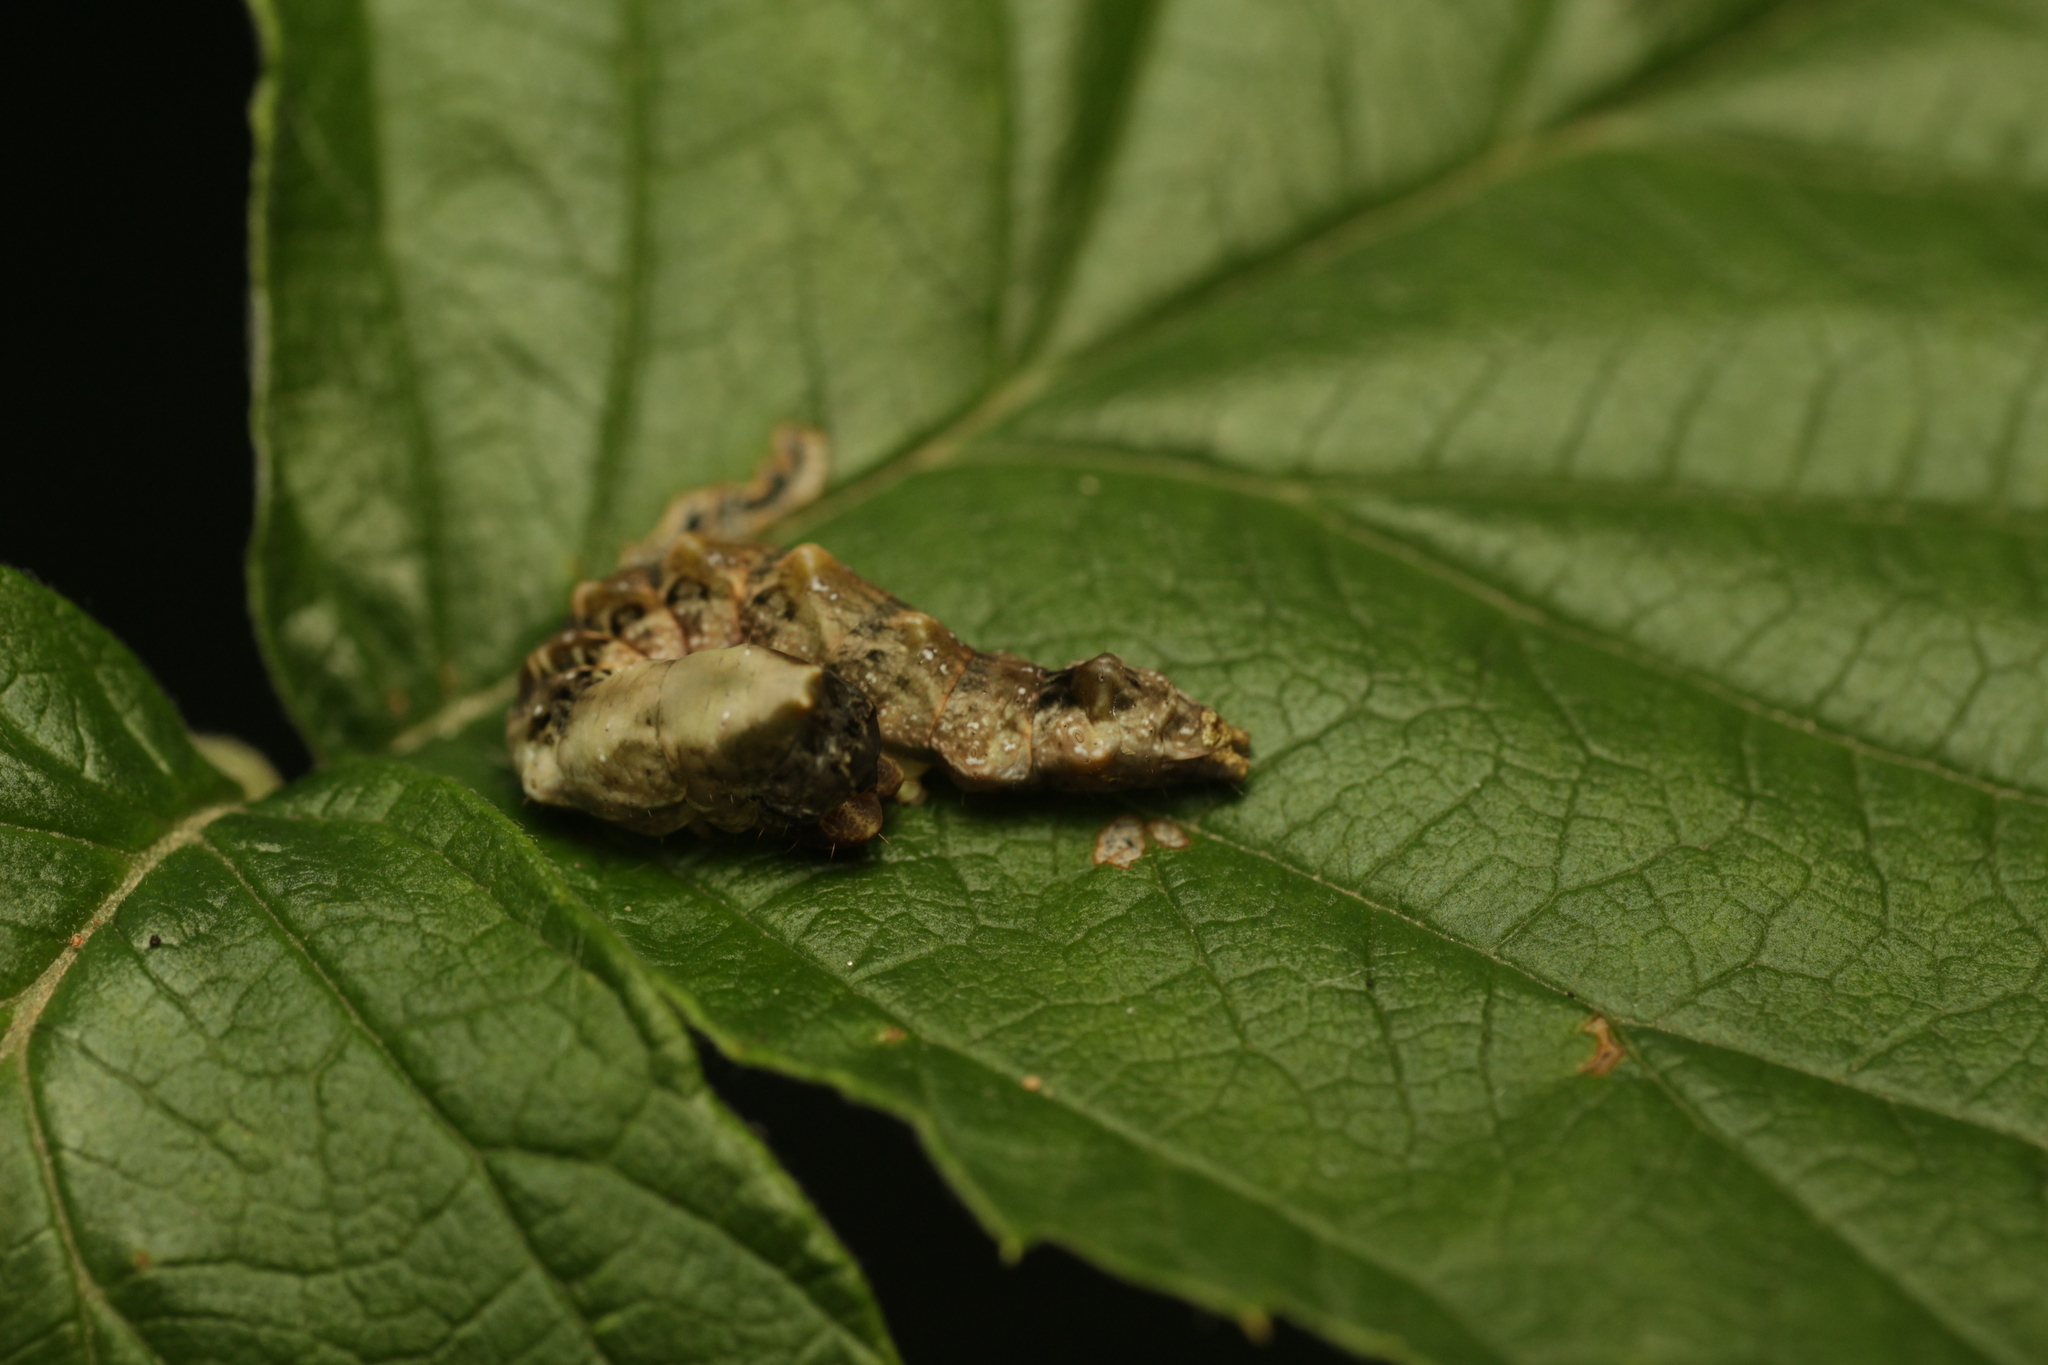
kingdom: Animalia
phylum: Arthropoda
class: Insecta
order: Lepidoptera
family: Drepanidae
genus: Thyatira
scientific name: Thyatira batis
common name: Peach blossom
